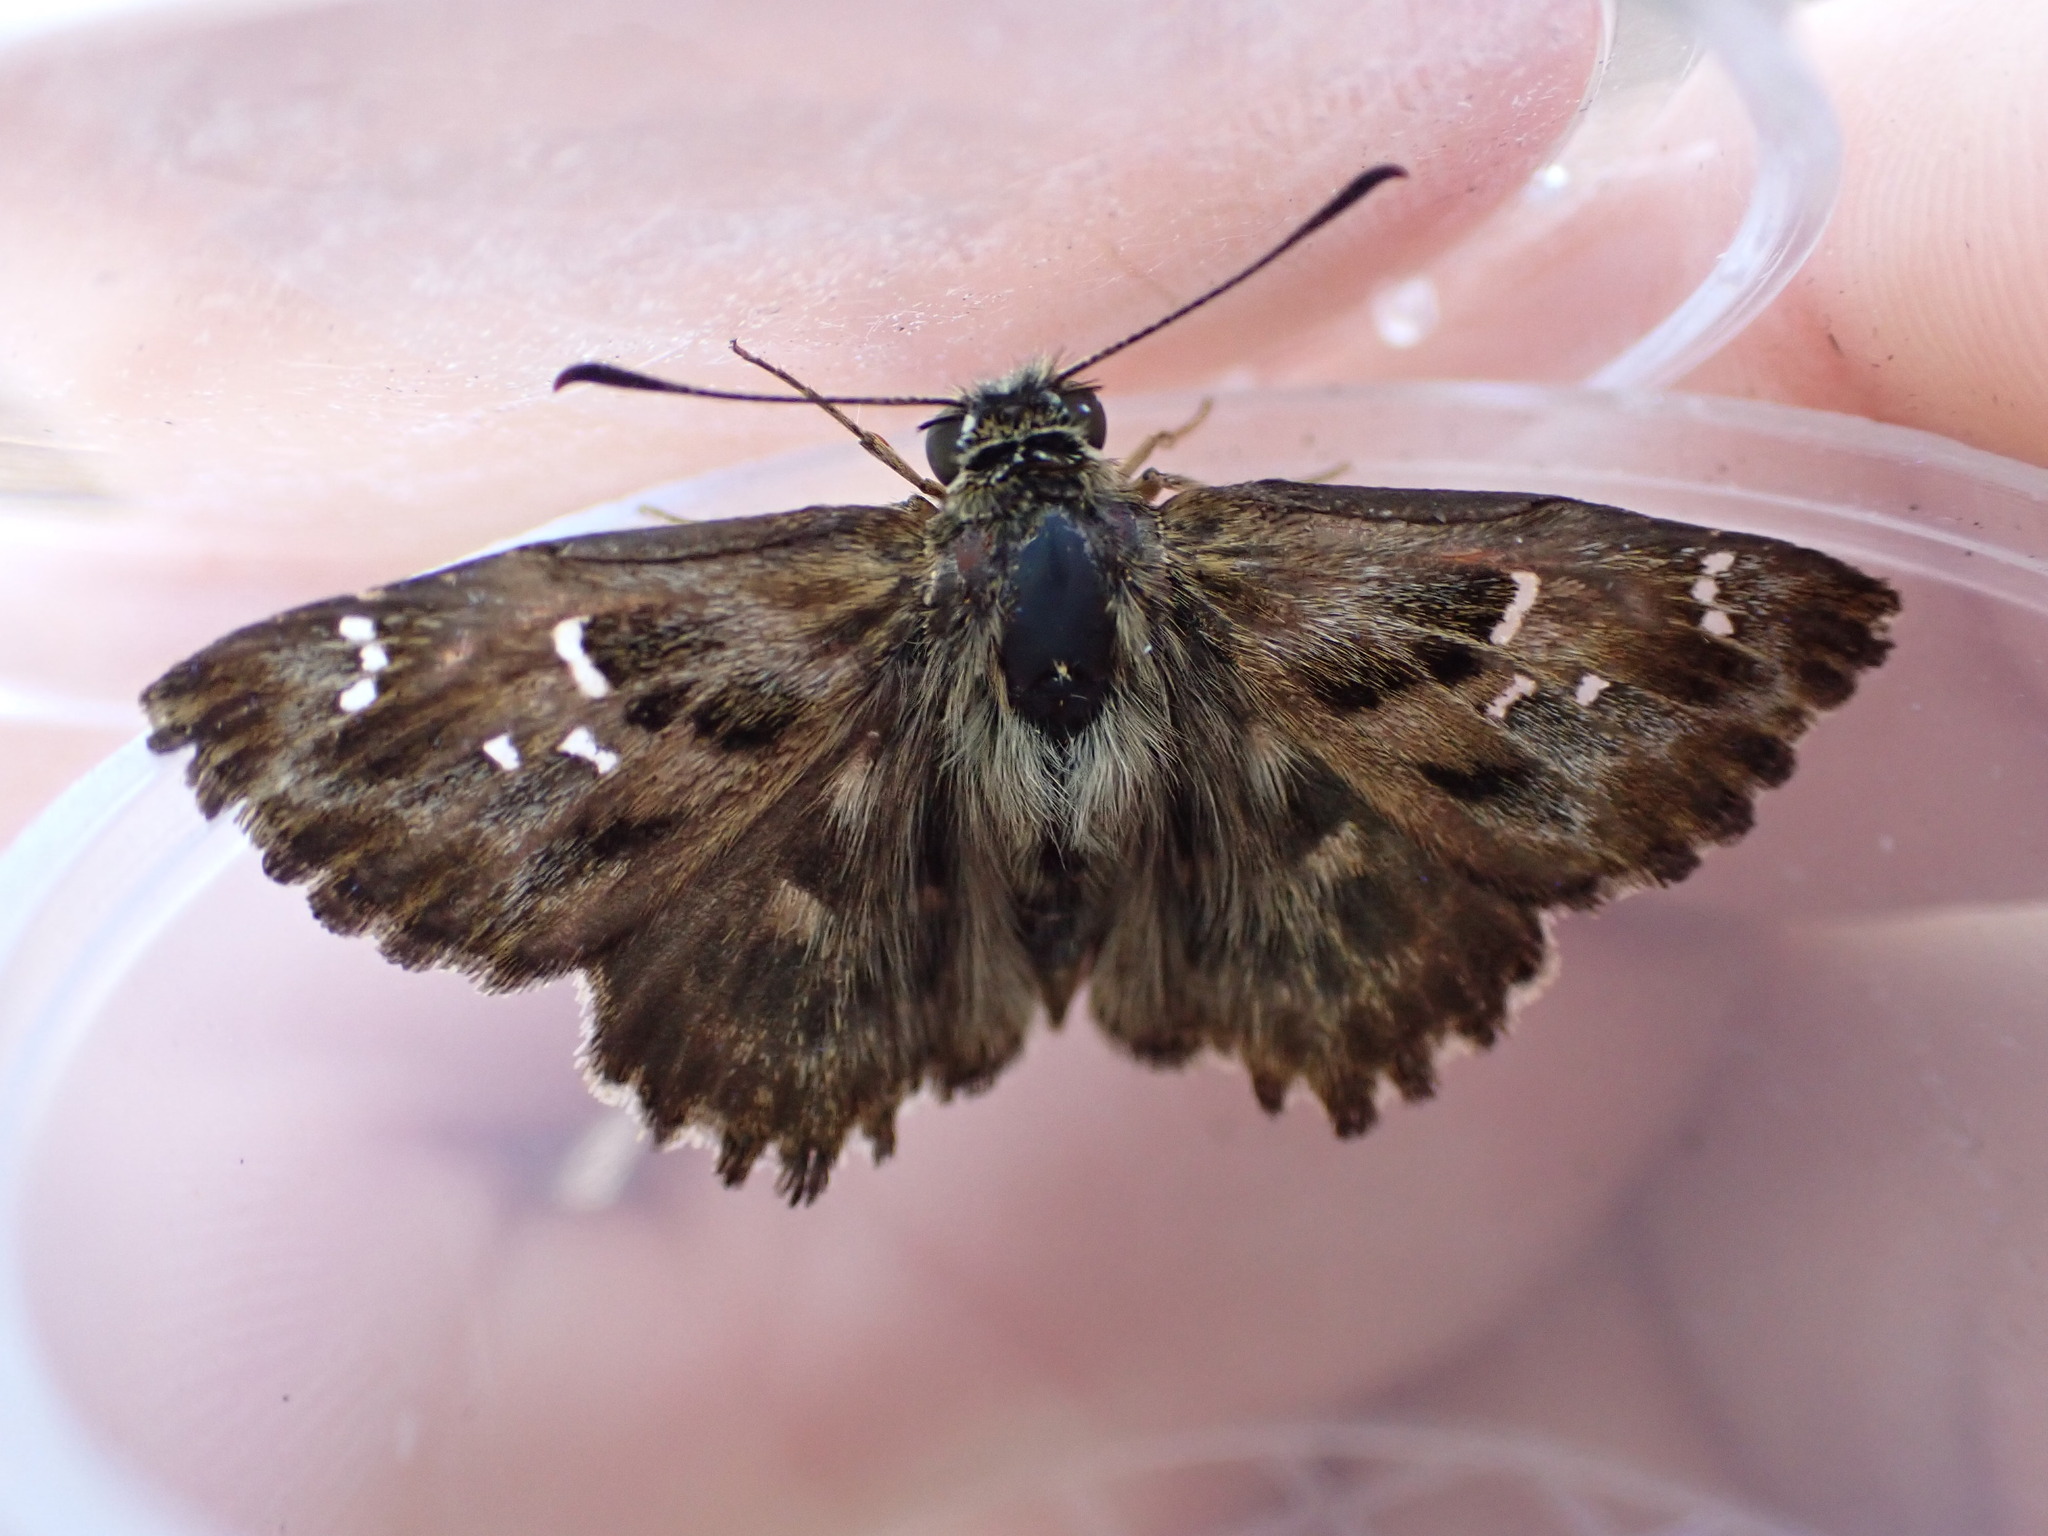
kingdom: Animalia
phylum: Arthropoda
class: Insecta
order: Lepidoptera
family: Hesperiidae
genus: Carcharodus
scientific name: Carcharodus alceae
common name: Mallow skipper
